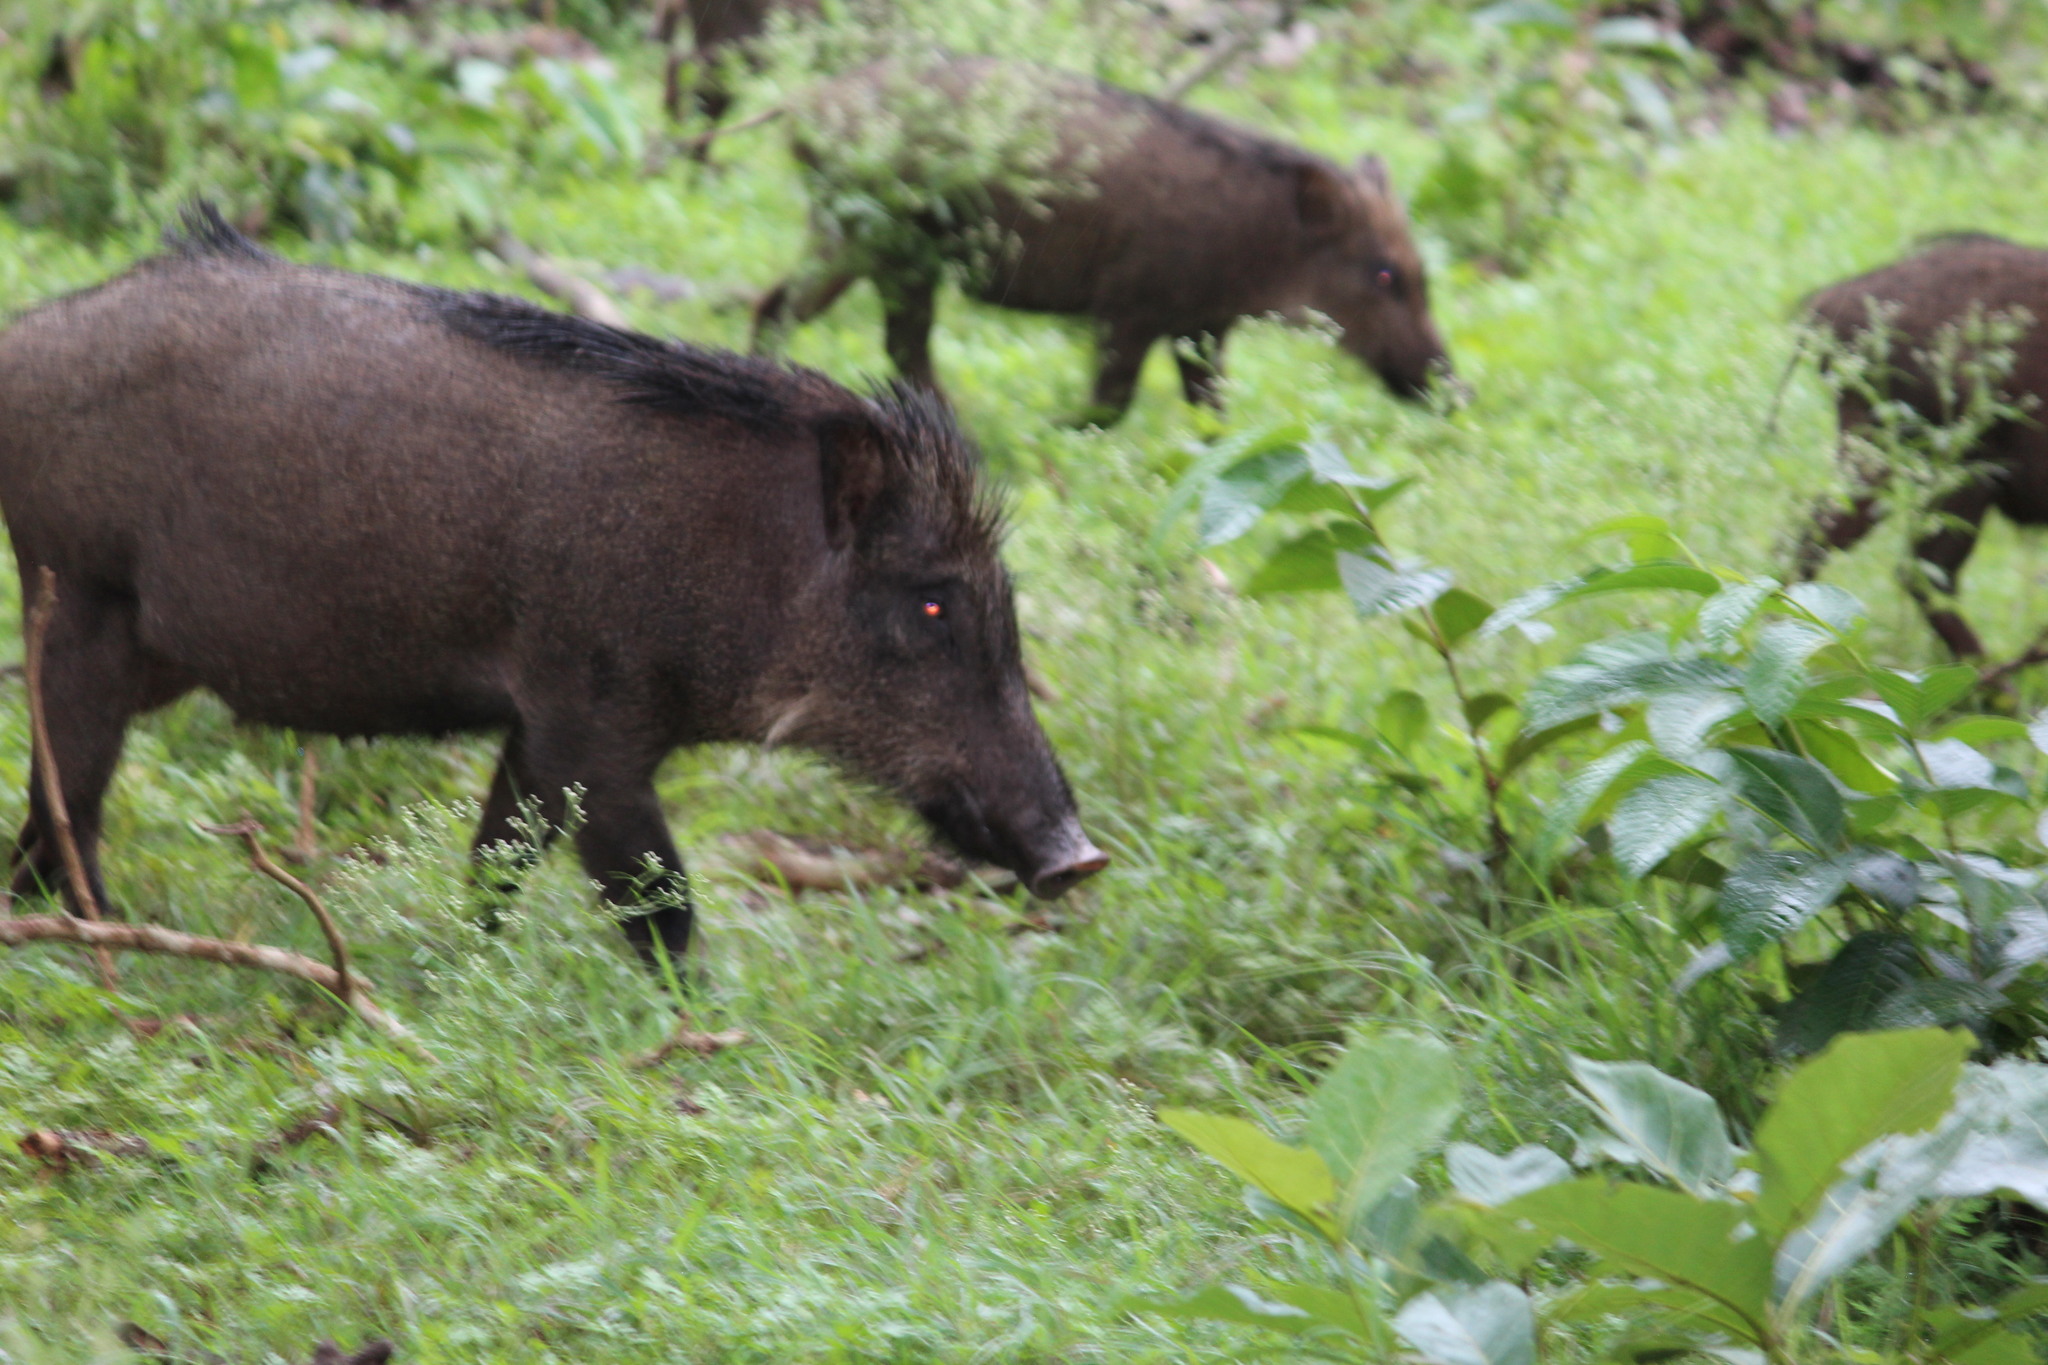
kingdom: Animalia
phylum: Chordata
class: Mammalia
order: Artiodactyla
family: Suidae
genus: Sus
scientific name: Sus scrofa
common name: Wild boar
